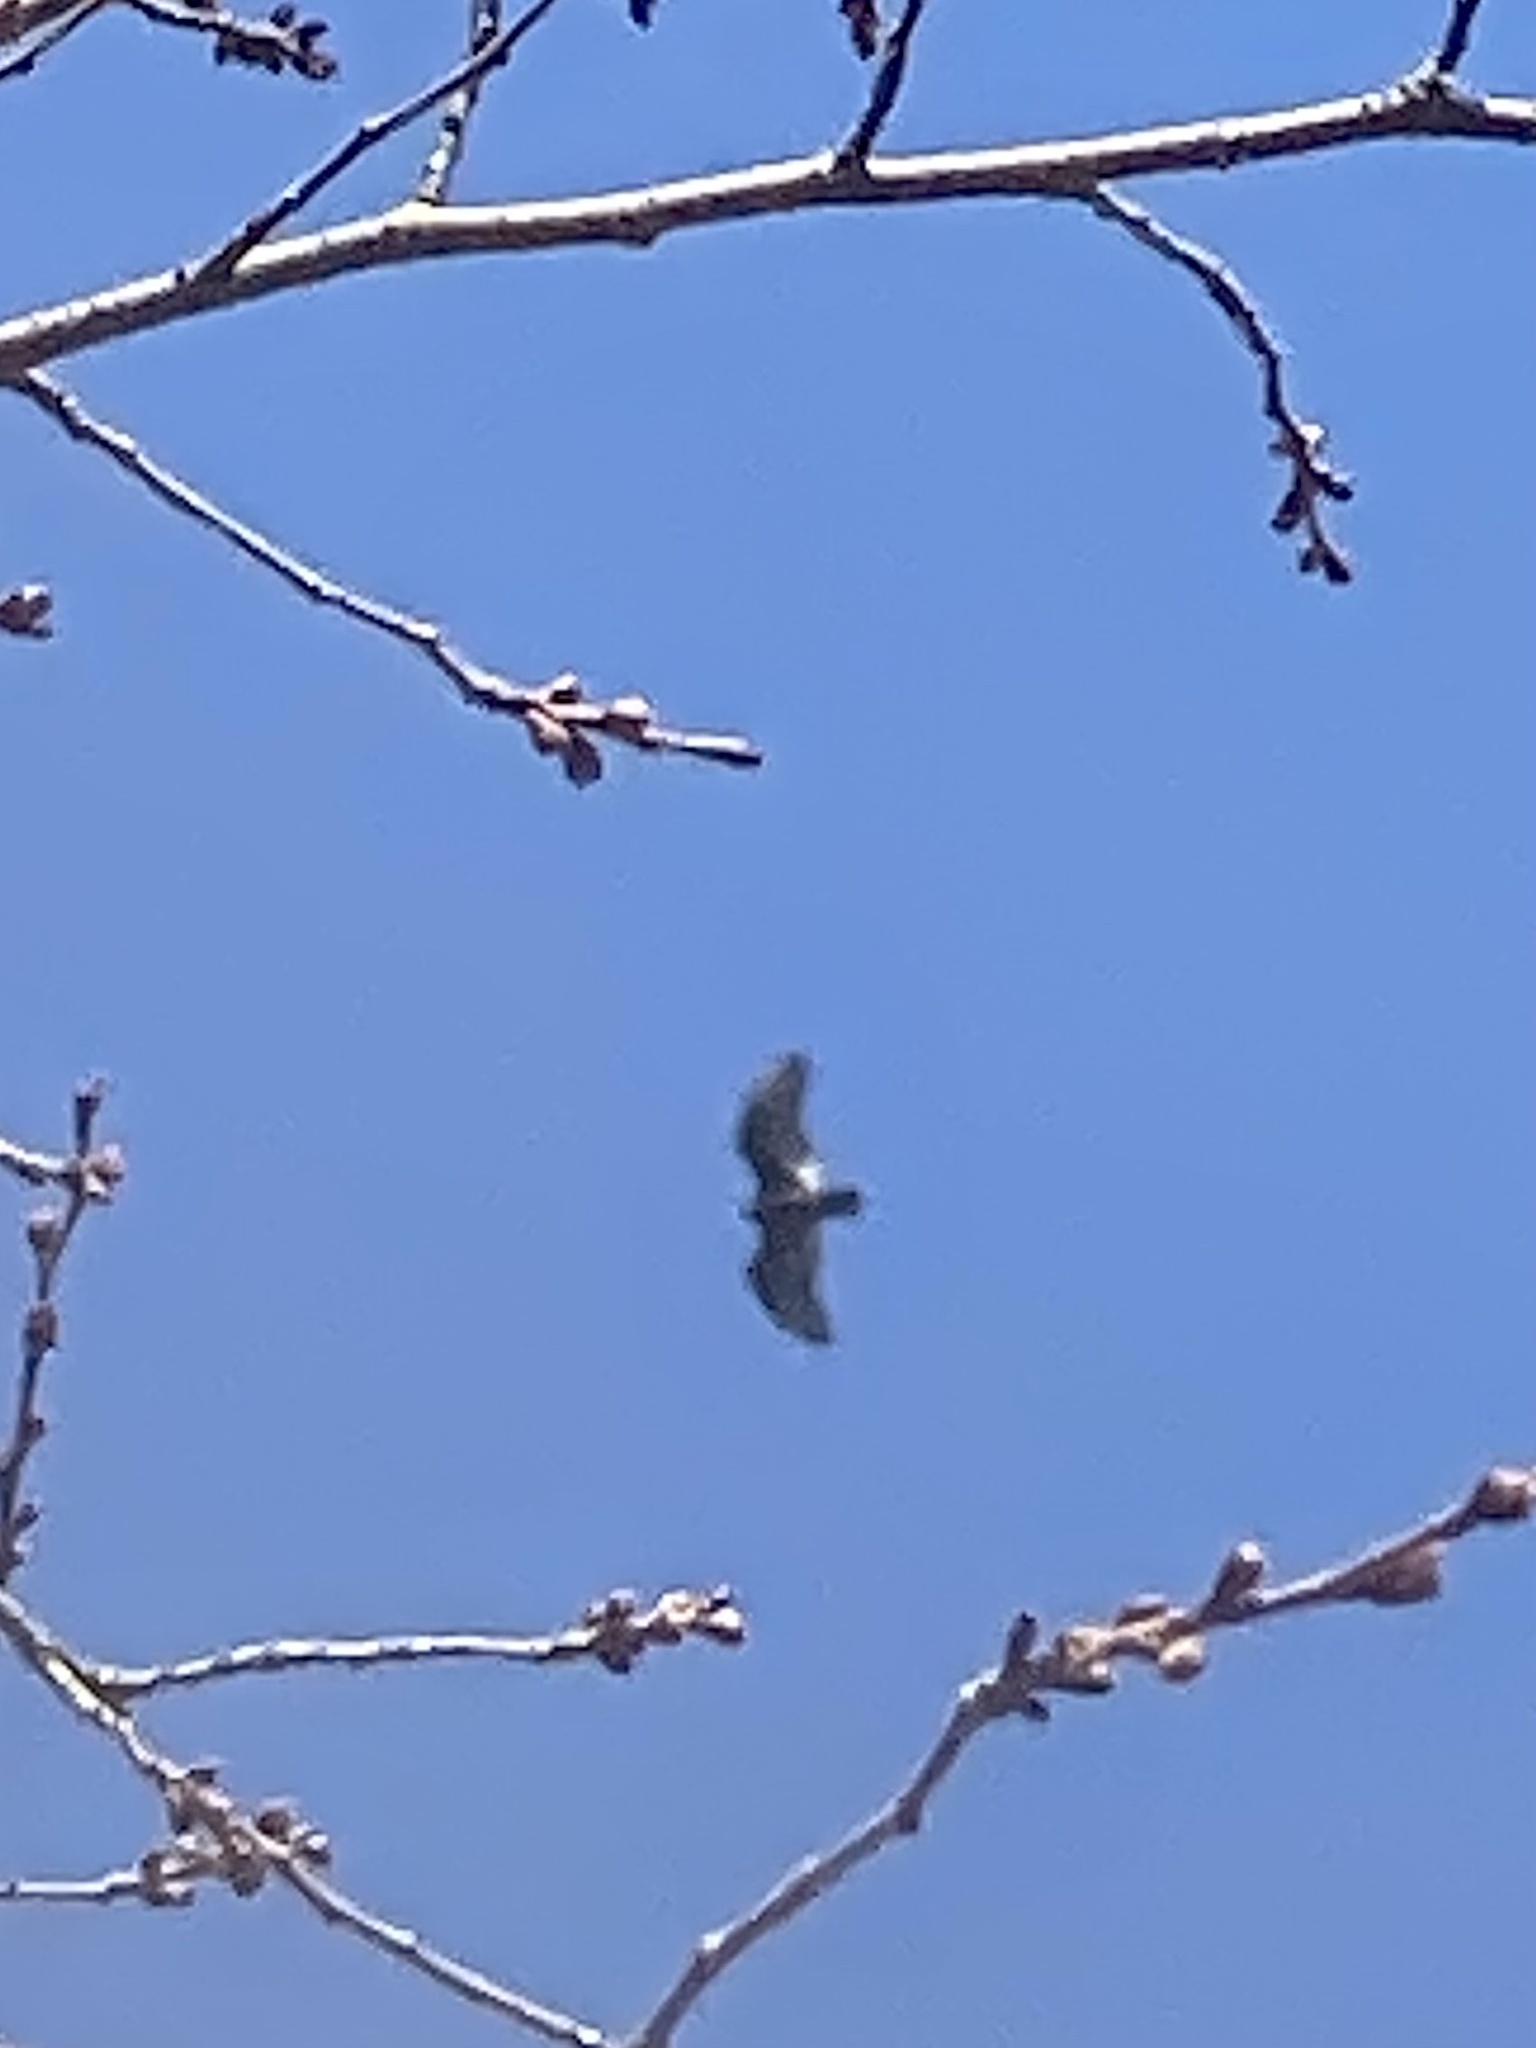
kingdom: Animalia
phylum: Chordata
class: Aves
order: Accipitriformes
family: Cathartidae
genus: Cathartes
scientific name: Cathartes aura
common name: Turkey vulture
